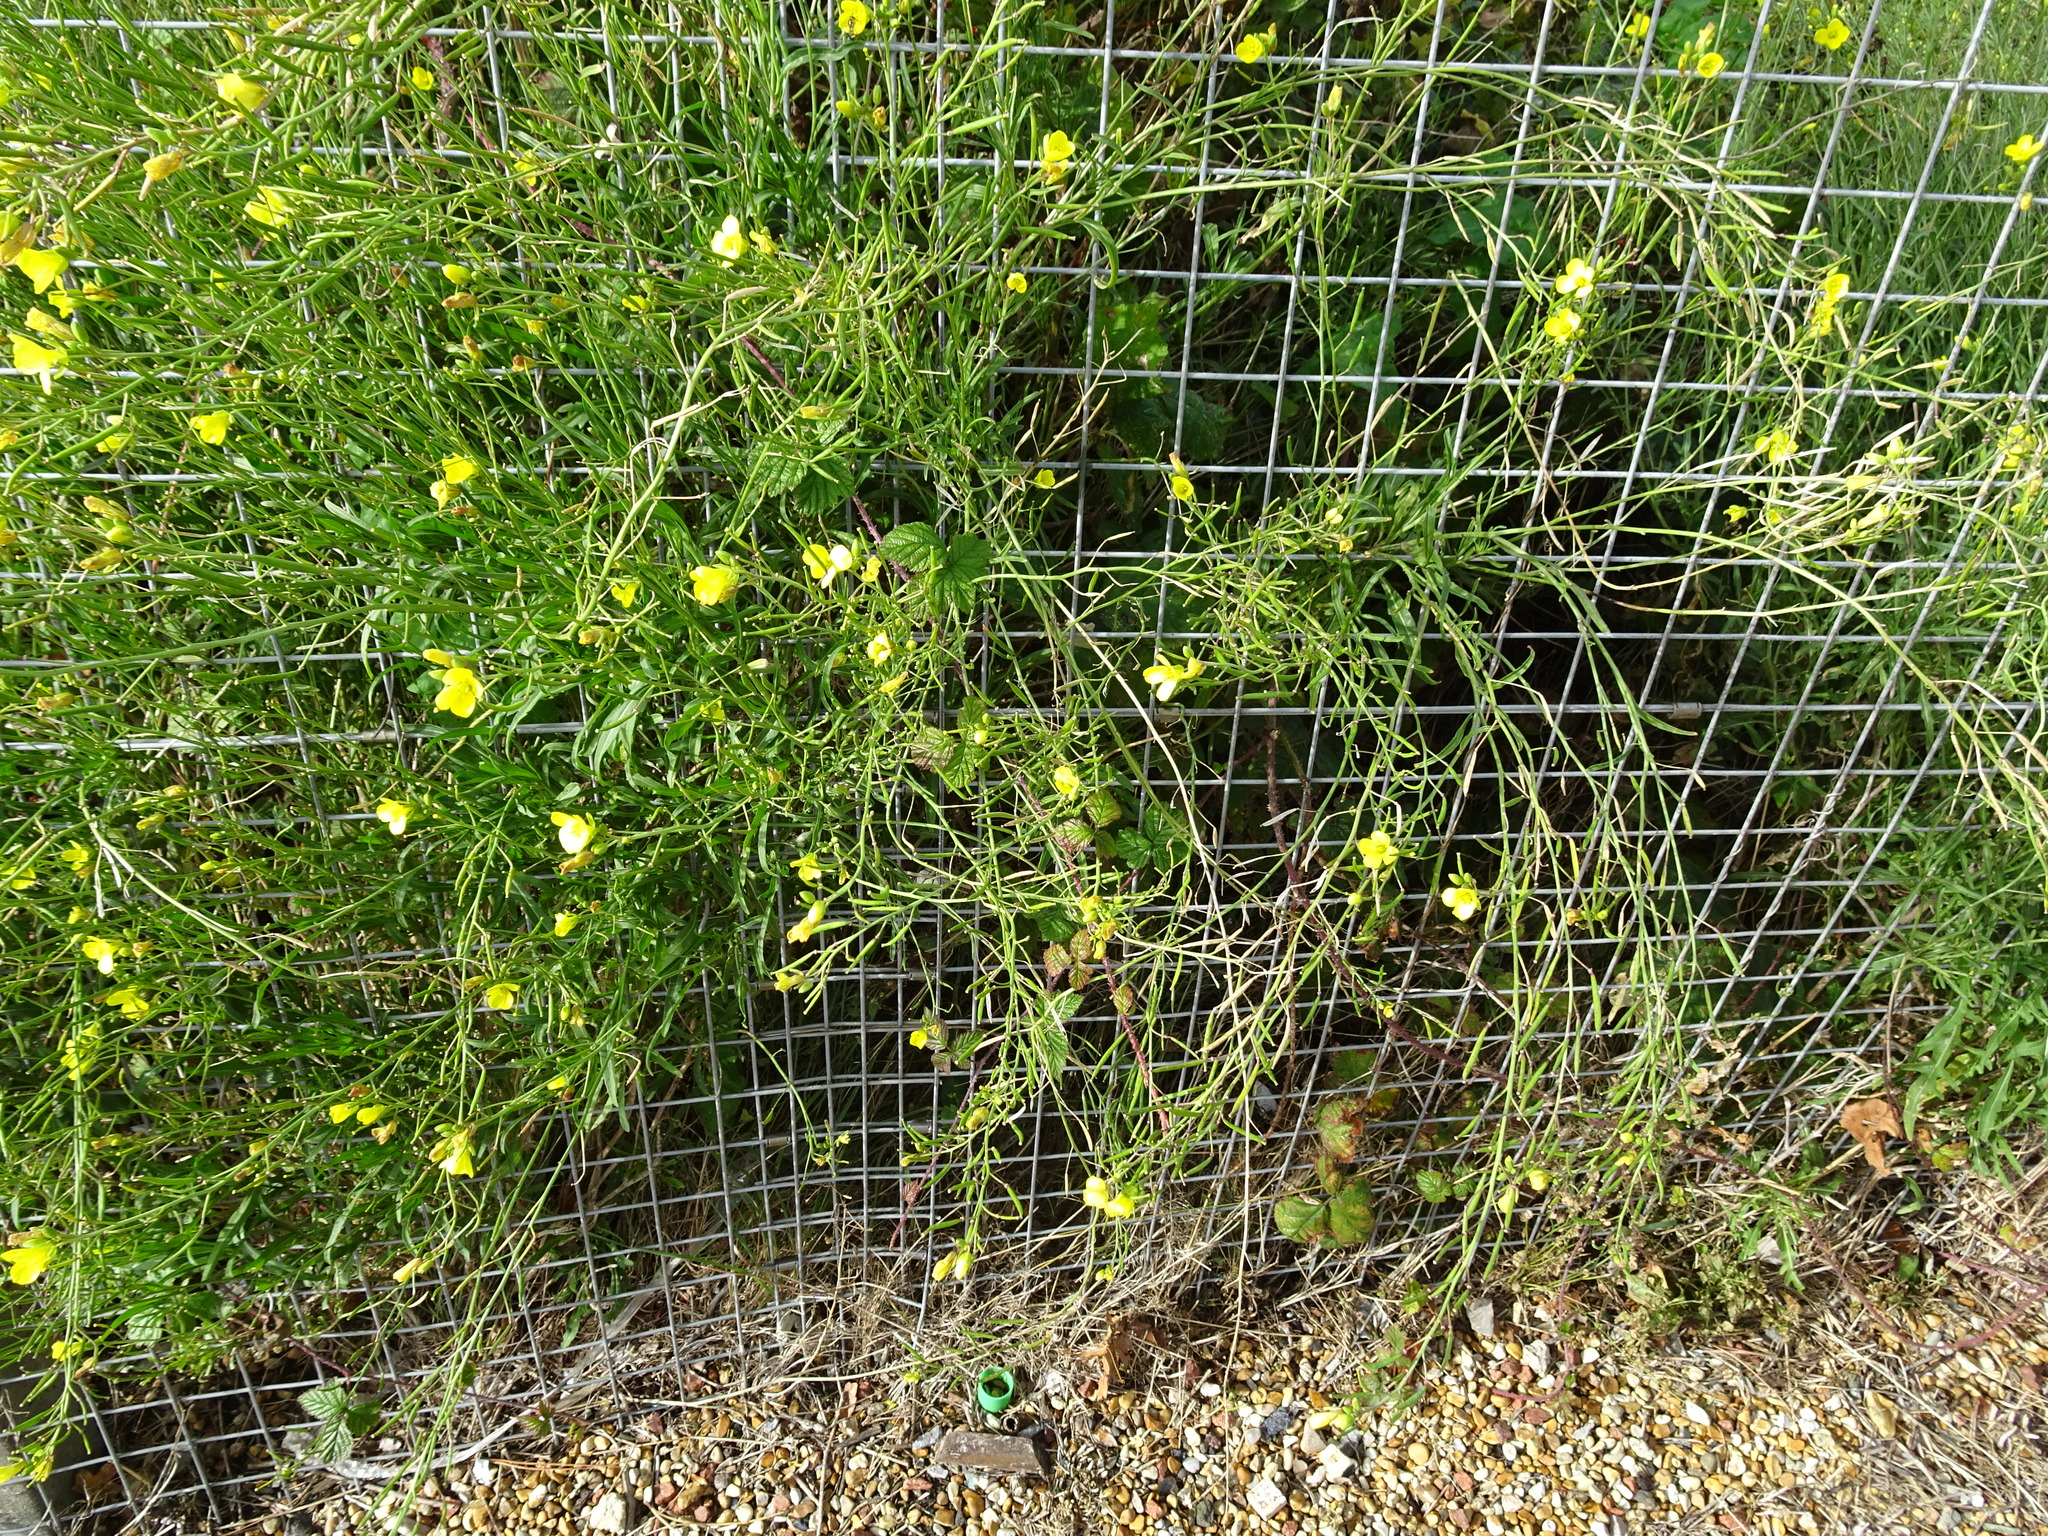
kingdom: Plantae
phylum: Tracheophyta
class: Magnoliopsida
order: Brassicales
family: Brassicaceae
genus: Diplotaxis
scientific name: Diplotaxis tenuifolia
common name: Perennial wall-rocket
